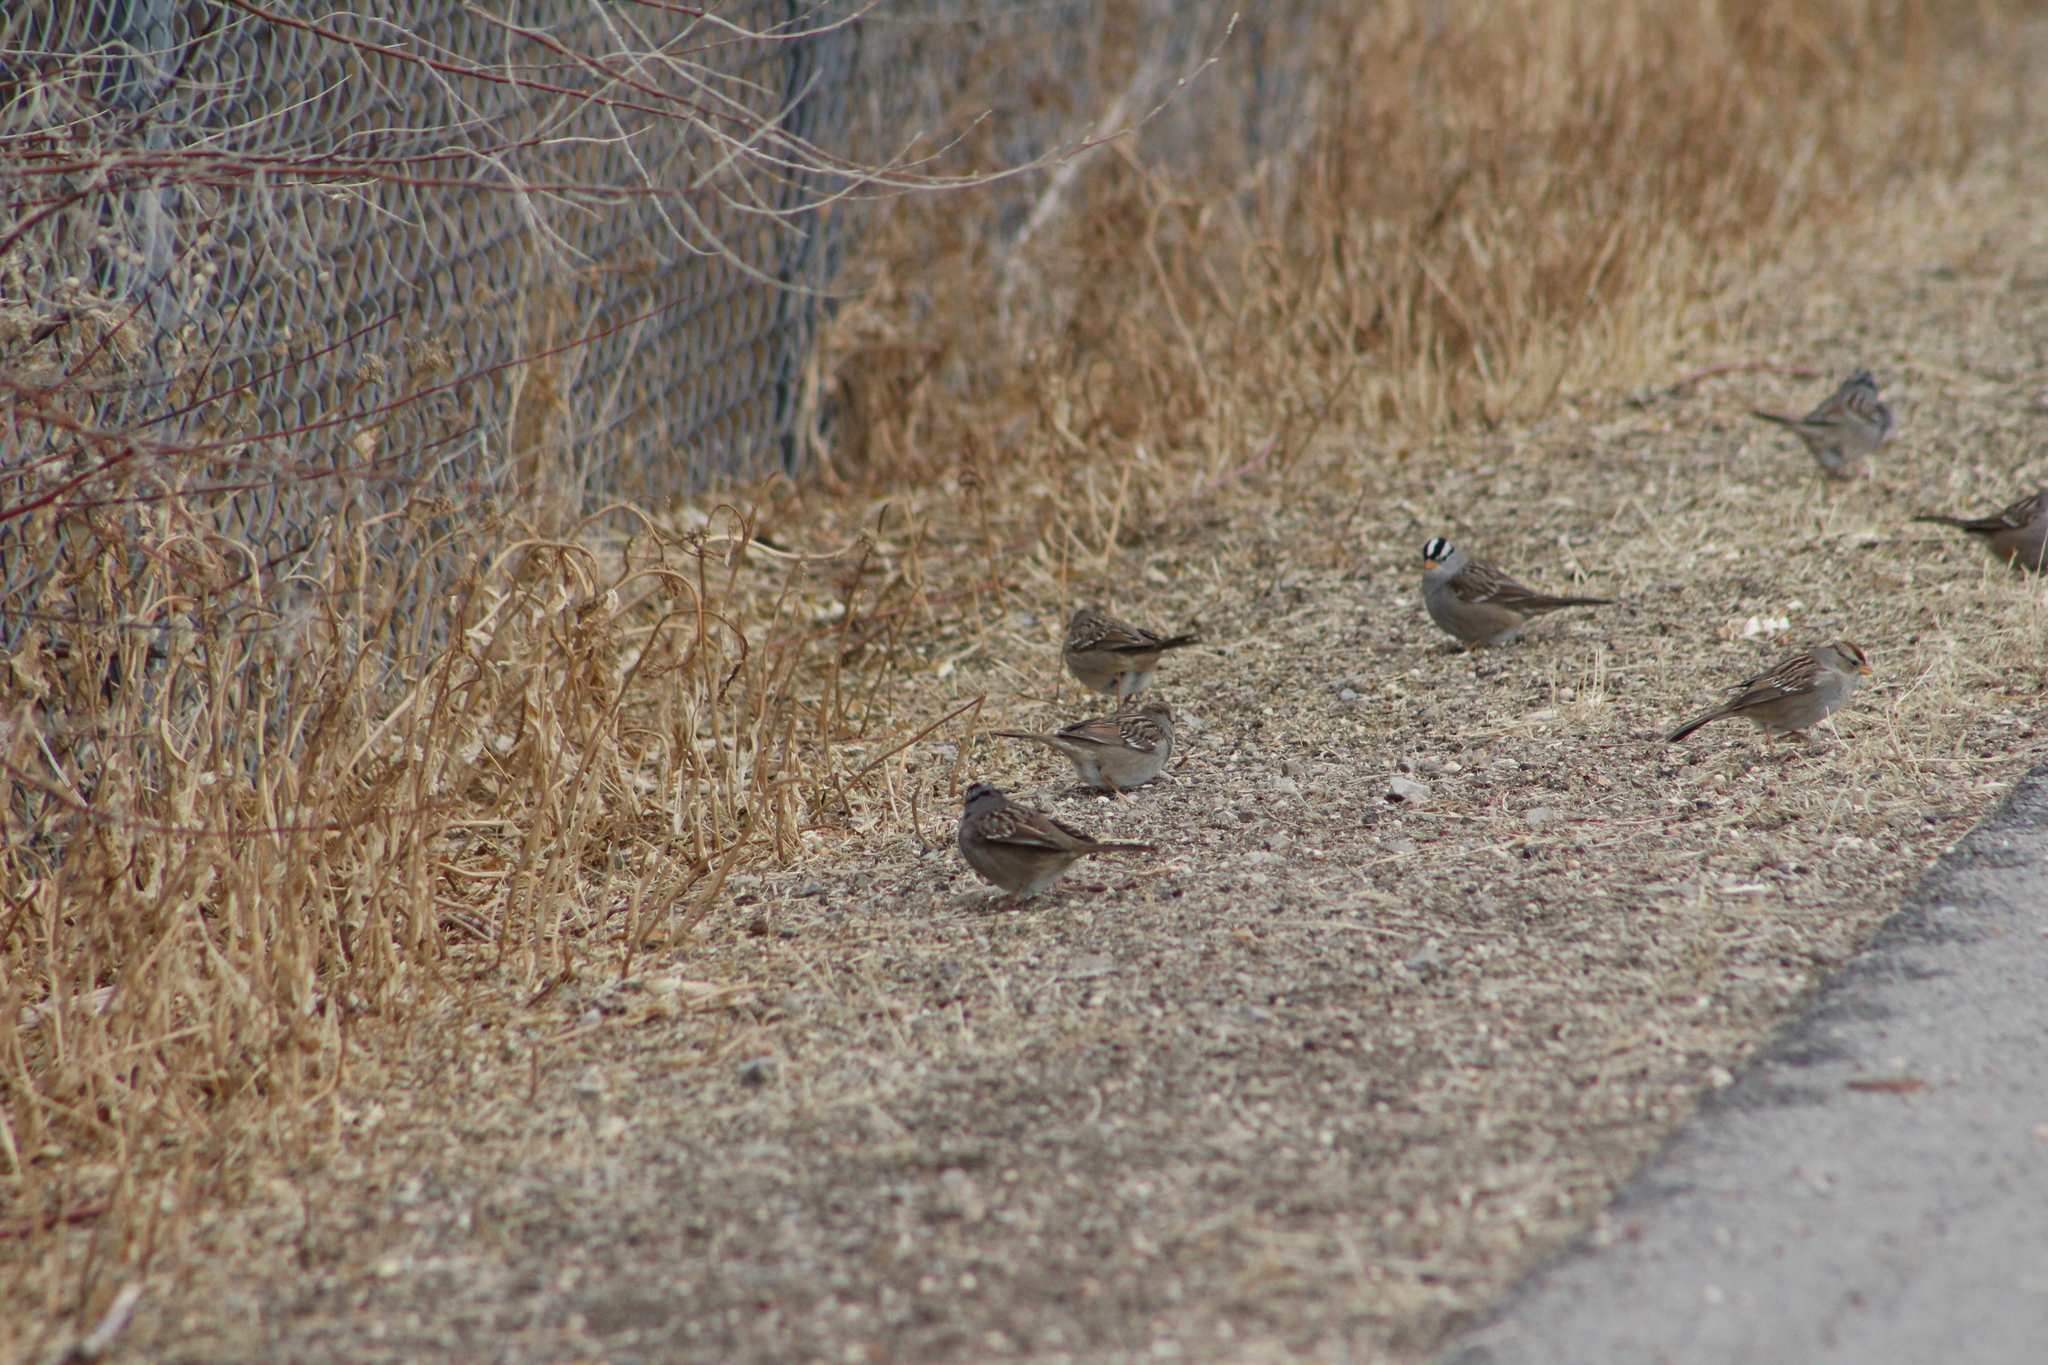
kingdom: Animalia
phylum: Chordata
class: Aves
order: Passeriformes
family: Passerellidae
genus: Zonotrichia
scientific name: Zonotrichia leucophrys
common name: White-crowned sparrow
